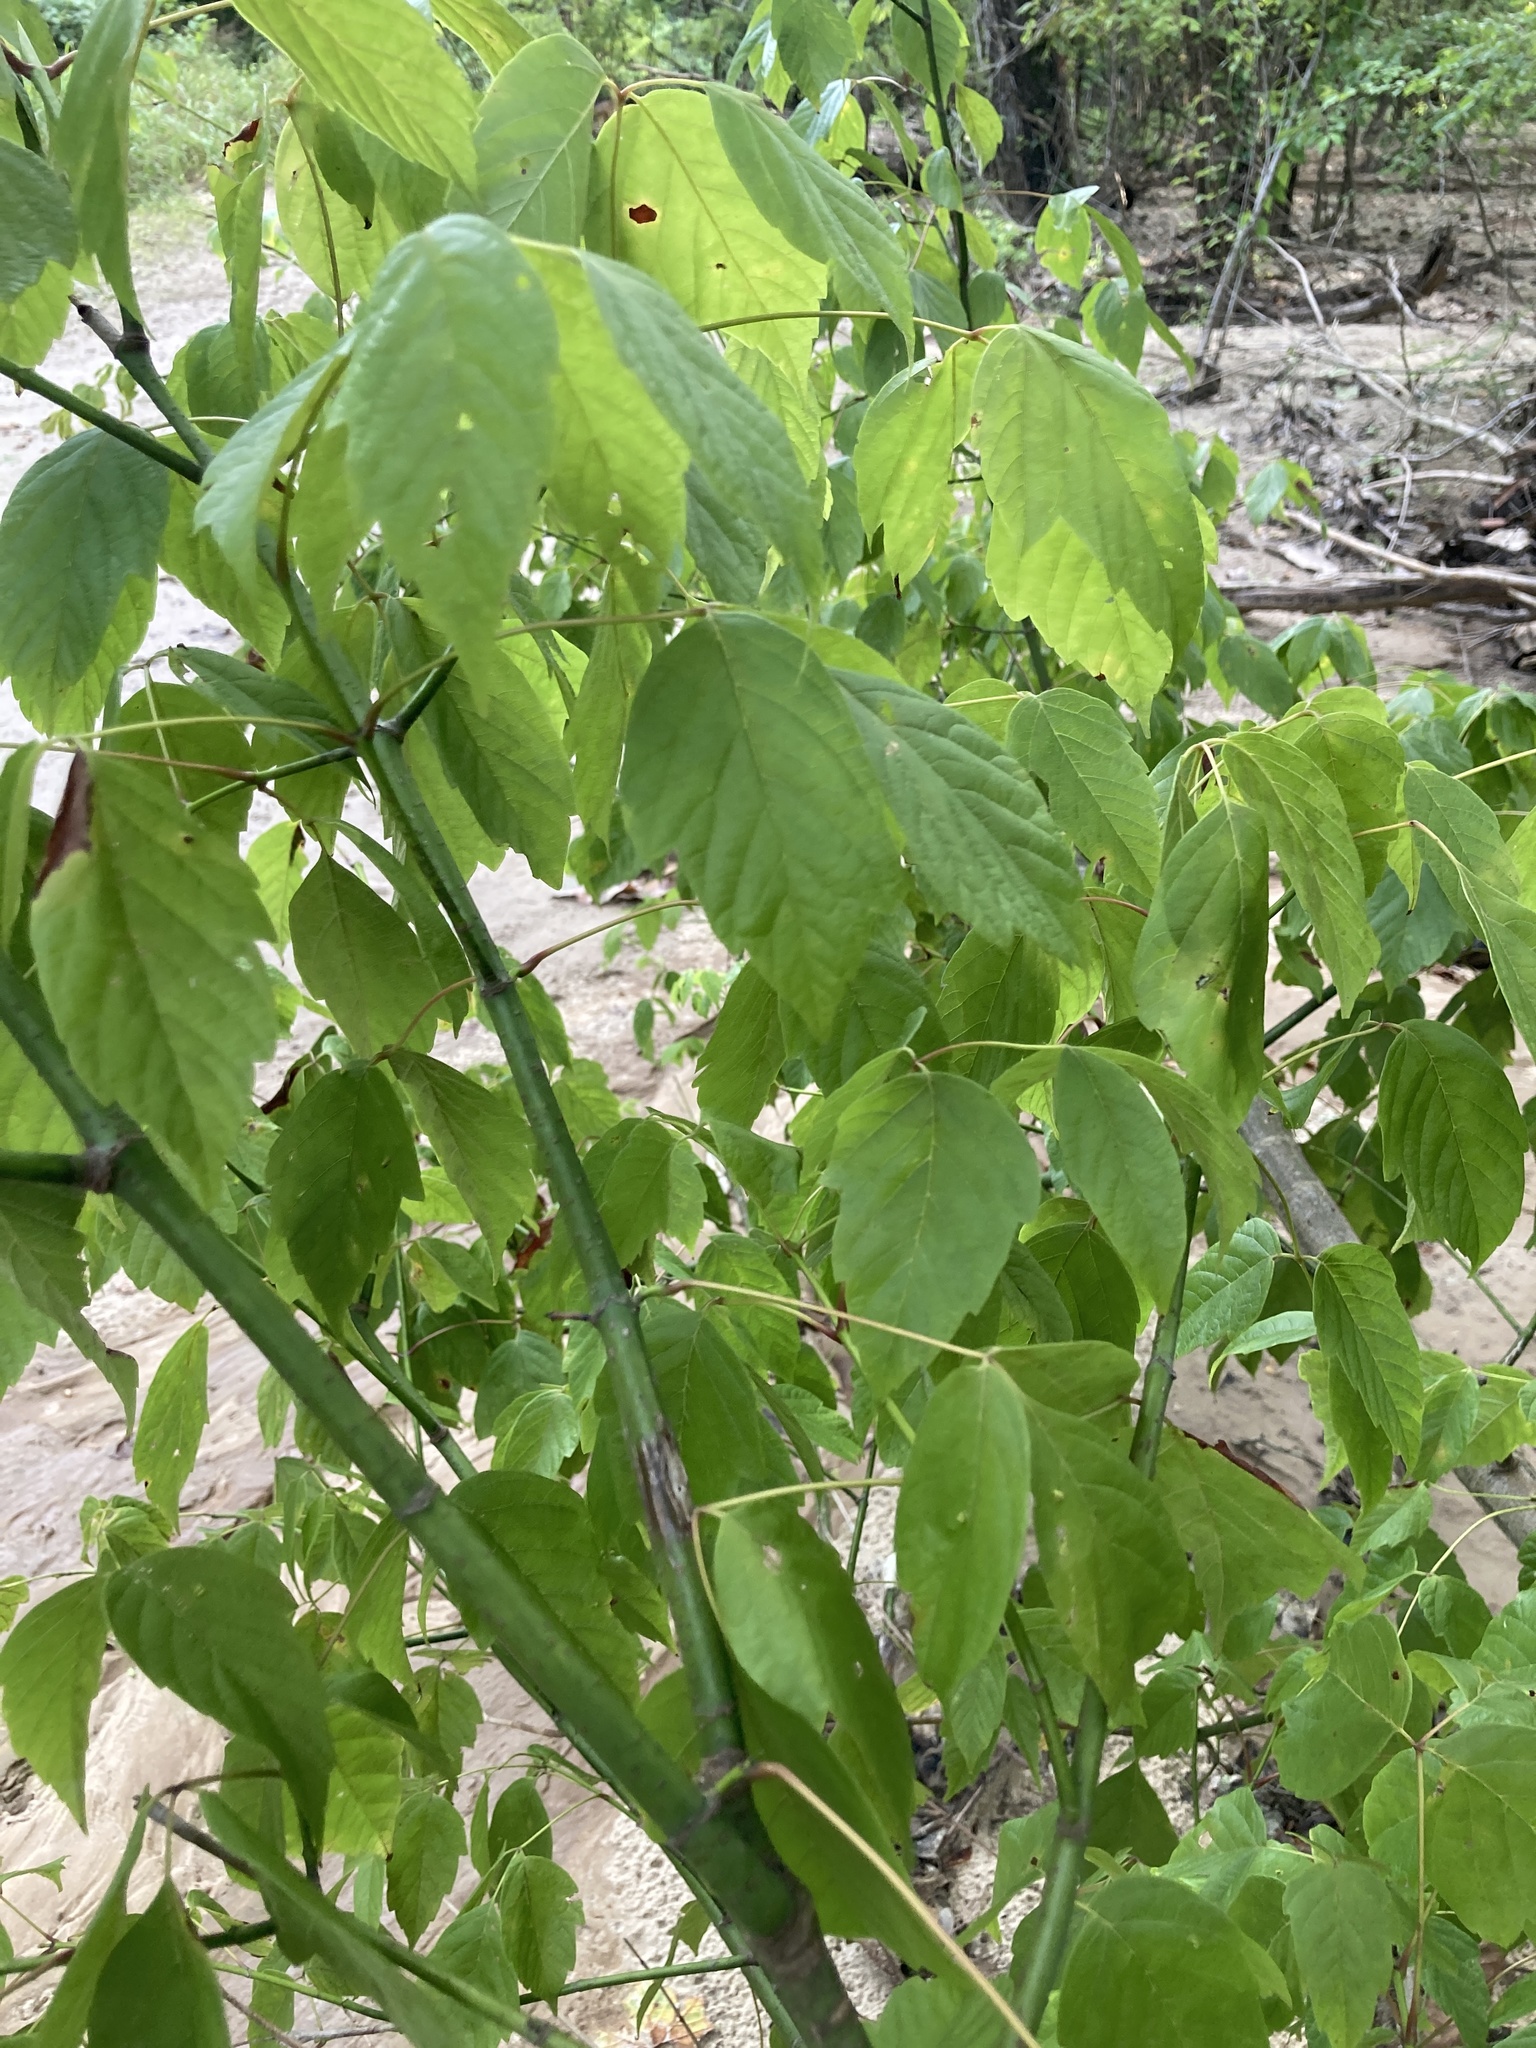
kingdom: Plantae
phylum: Tracheophyta
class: Magnoliopsida
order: Sapindales
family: Sapindaceae
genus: Acer
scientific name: Acer negundo
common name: Ashleaf maple
